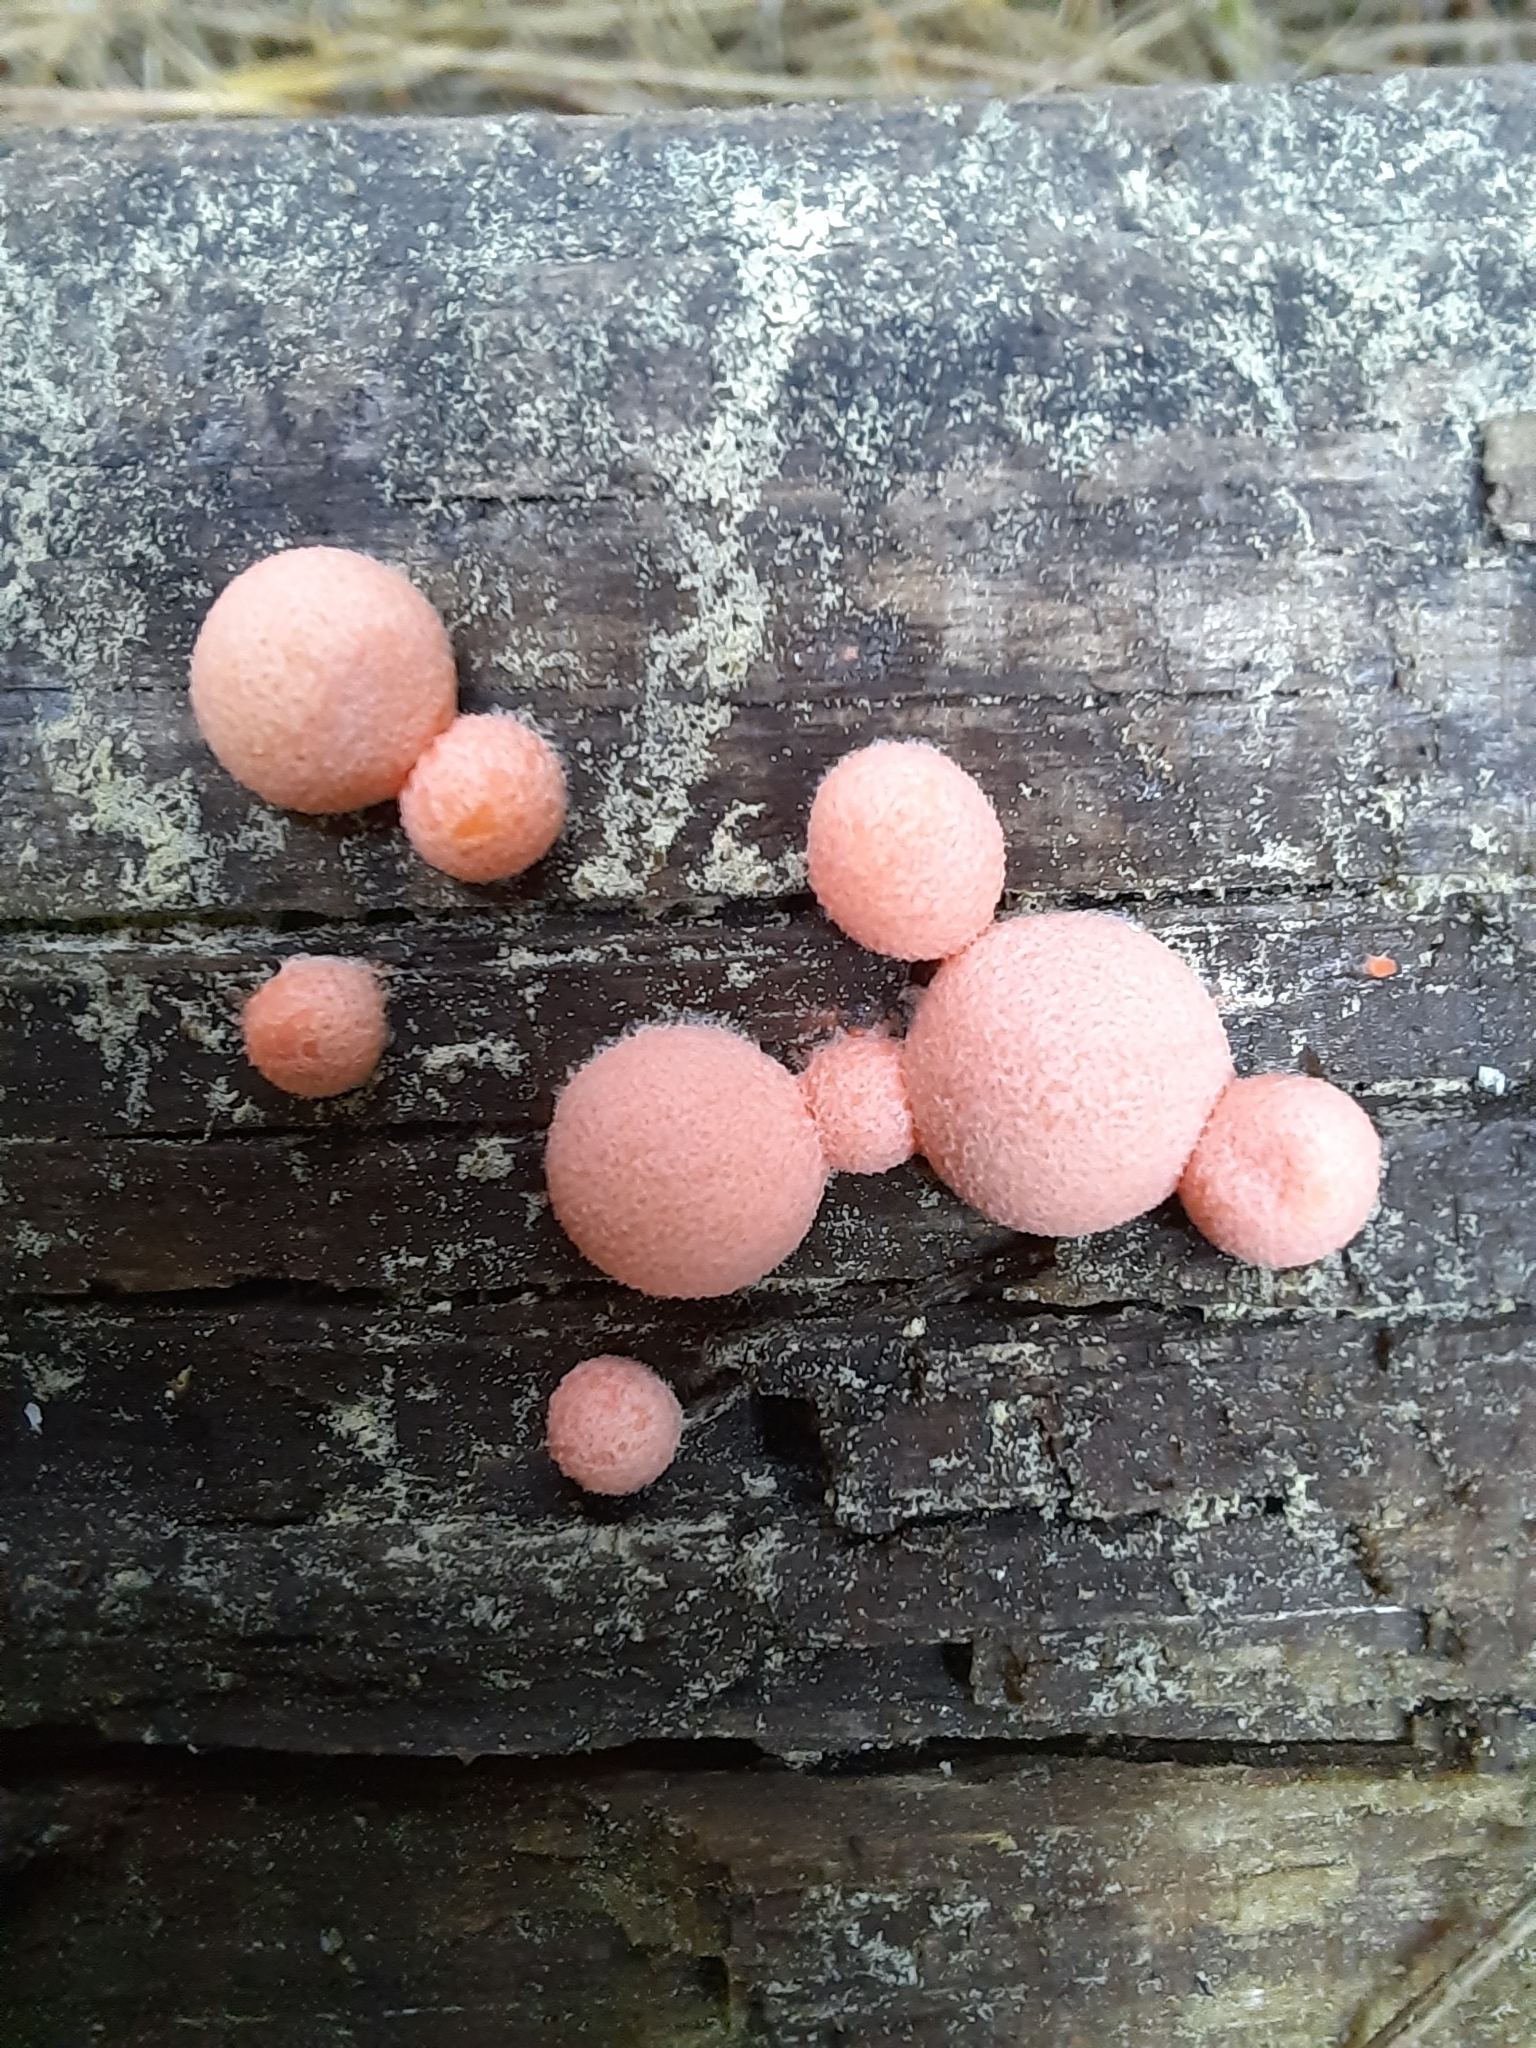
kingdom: Protozoa
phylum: Mycetozoa
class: Myxomycetes
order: Cribrariales
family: Tubiferaceae
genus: Lycogala
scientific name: Lycogala epidendrum
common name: Wolf's milk
